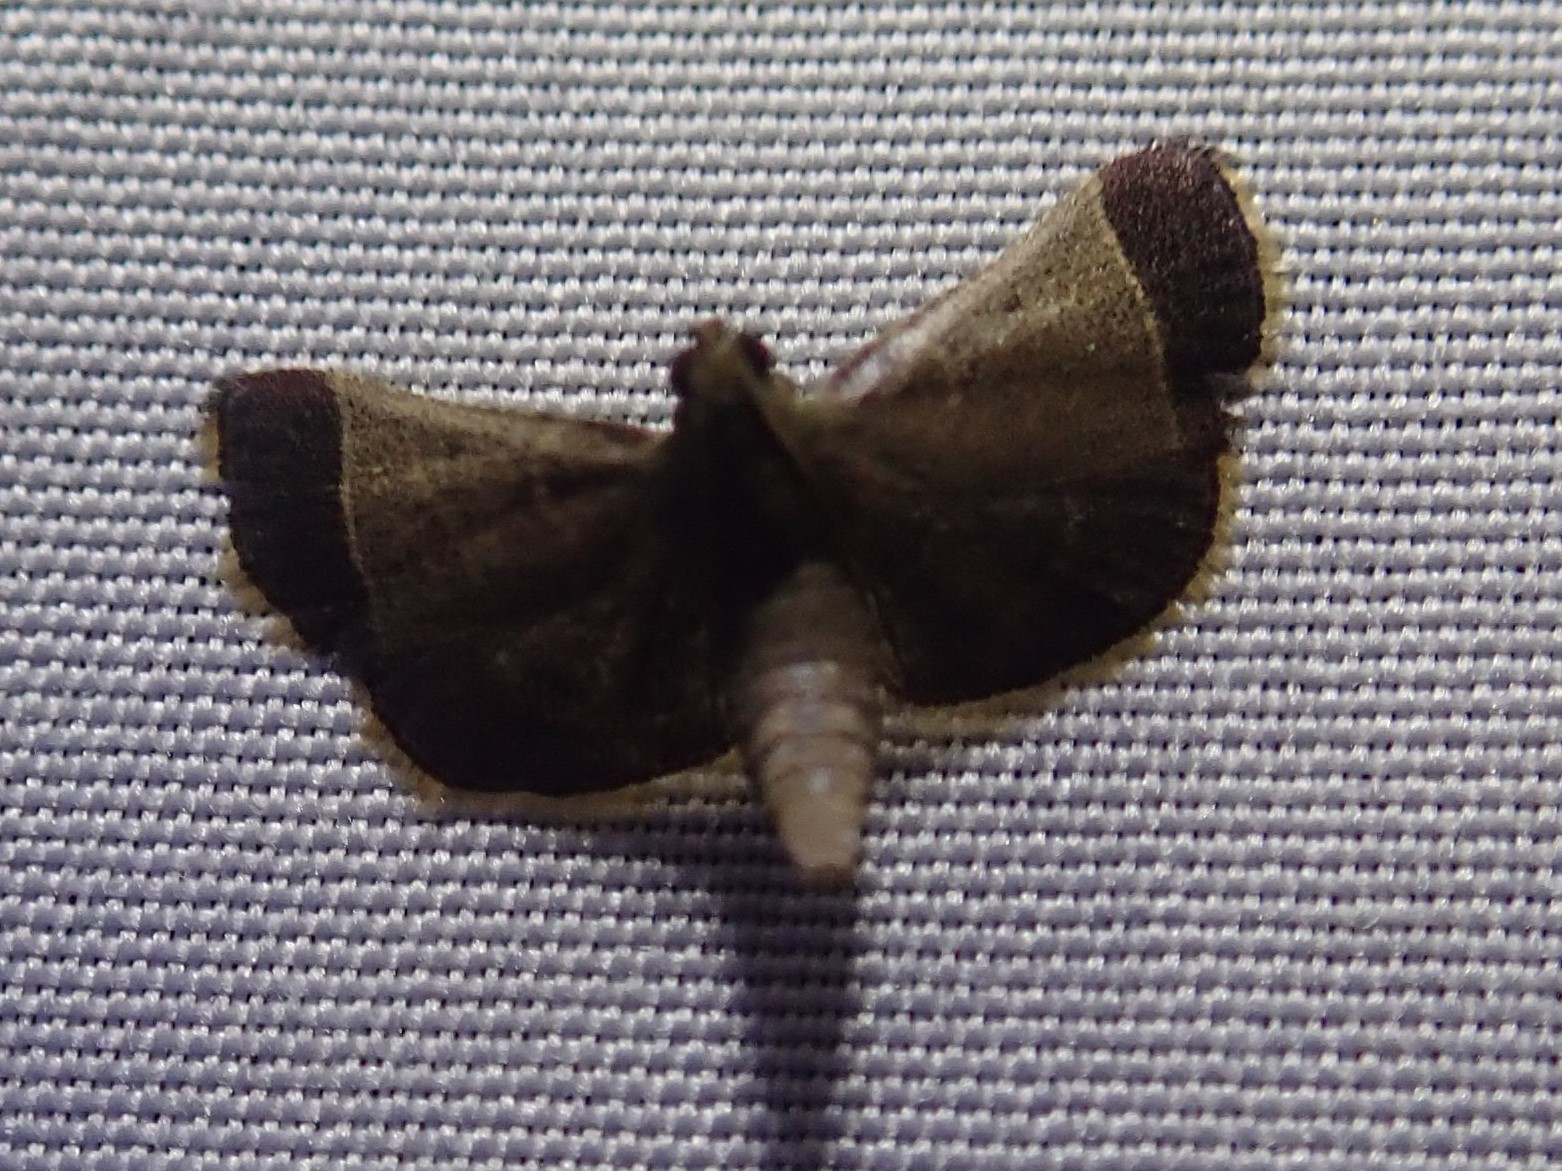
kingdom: Animalia
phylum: Arthropoda
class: Insecta
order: Lepidoptera
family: Pyralidae
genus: Hypsopygia
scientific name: Hypsopygia amoenalis
